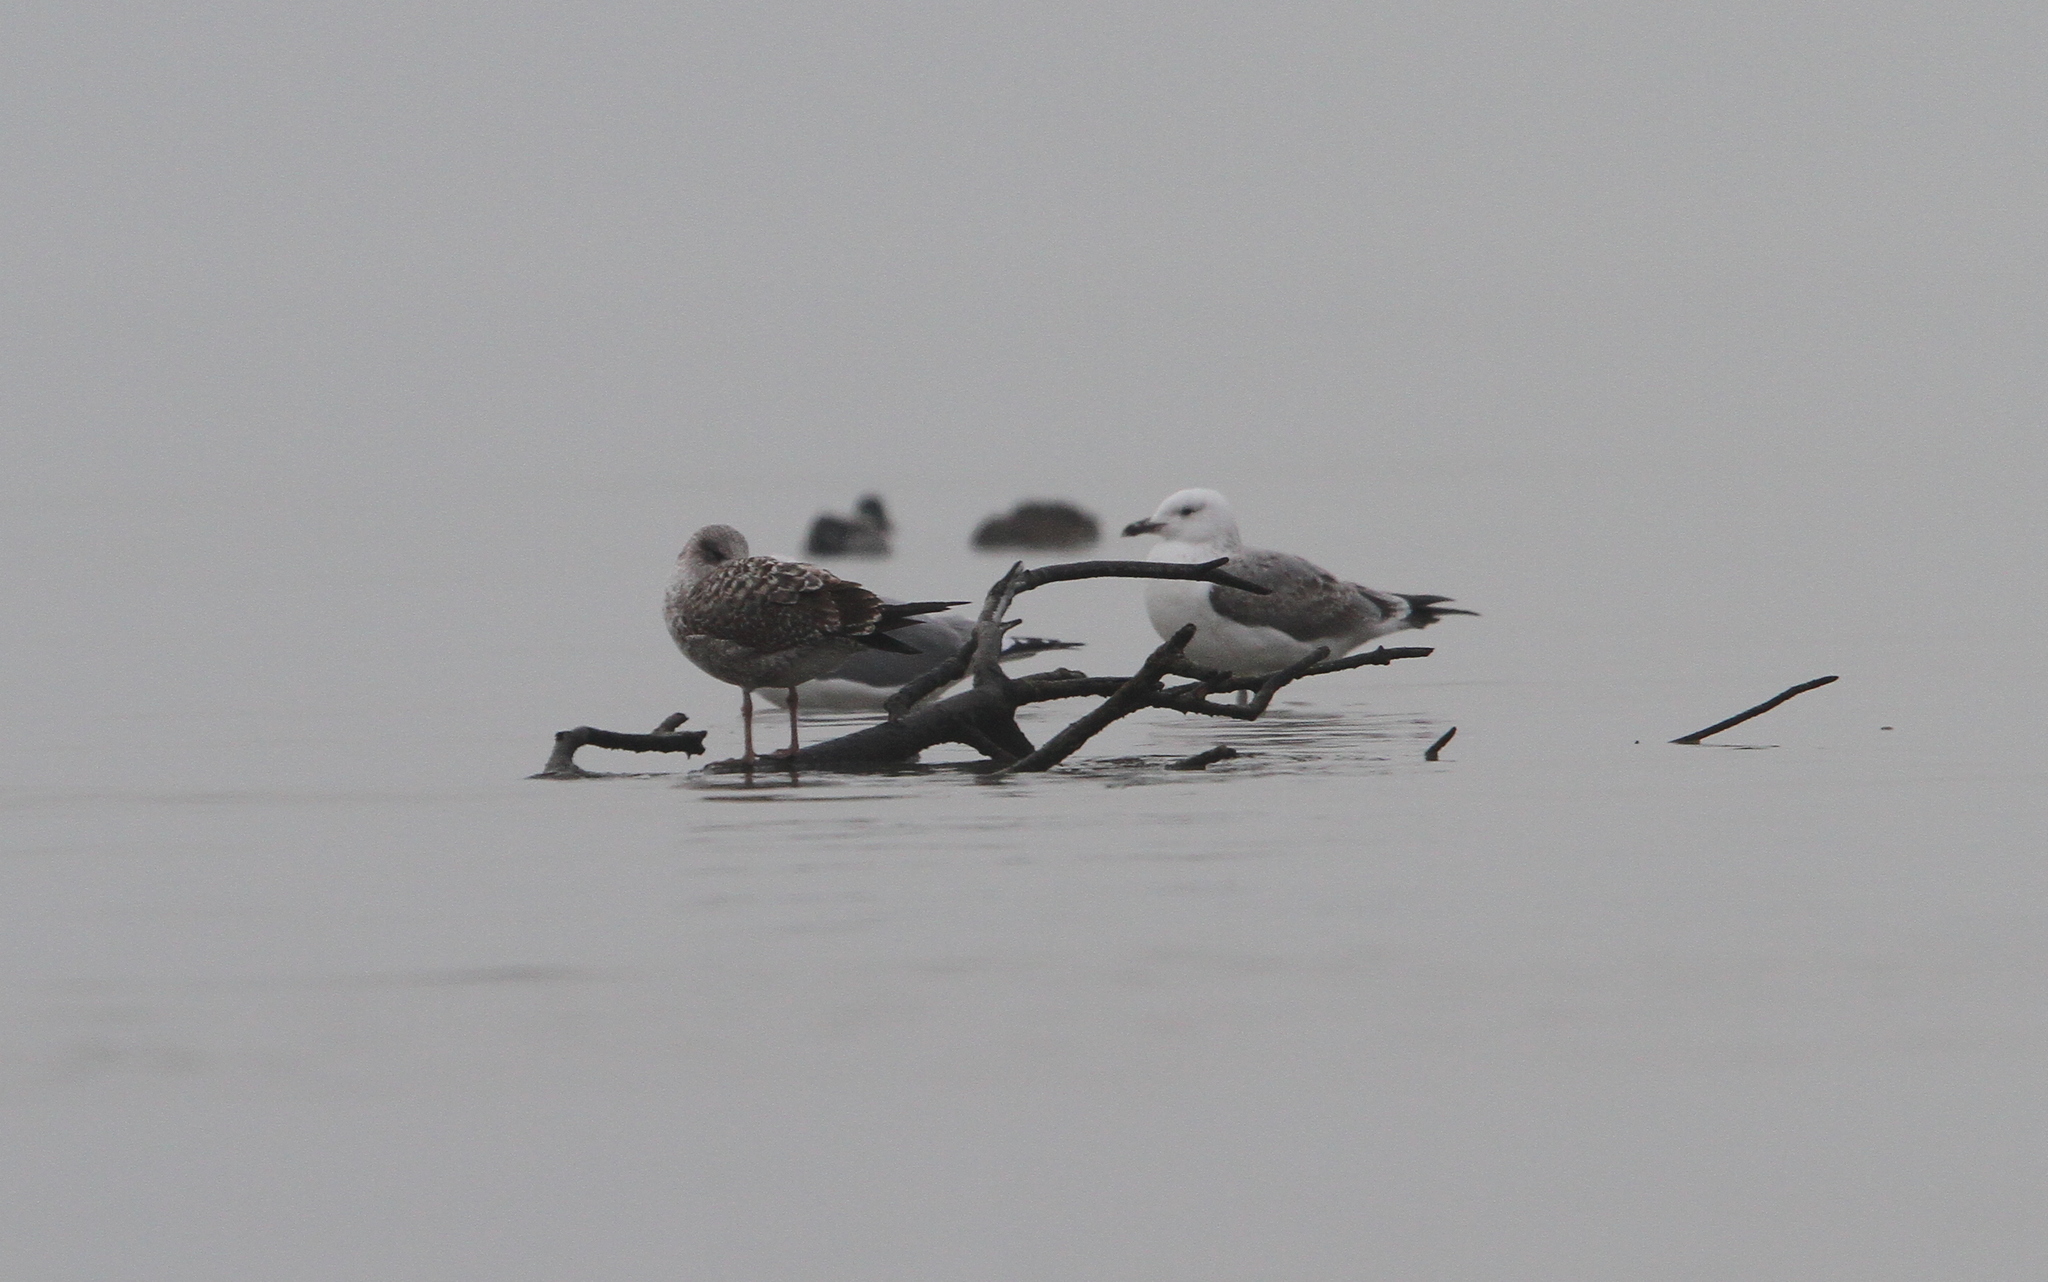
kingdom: Animalia
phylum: Chordata
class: Aves
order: Charadriiformes
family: Laridae
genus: Larus
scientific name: Larus fuscus
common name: Lesser black-backed gull
